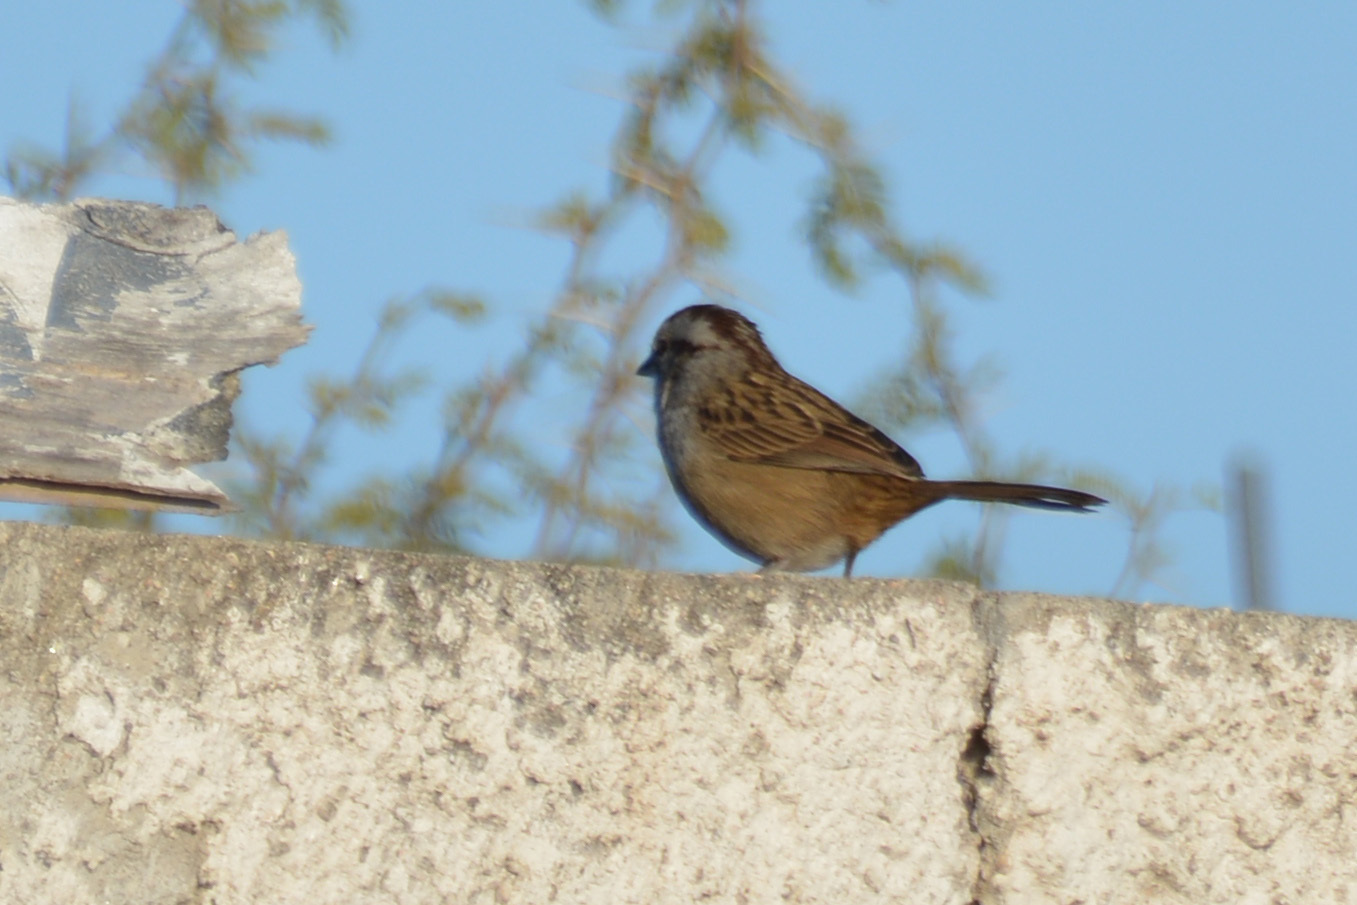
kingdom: Animalia
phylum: Chordata
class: Aves
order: Passeriformes
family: Passerellidae
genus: Rhynchospiza
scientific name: Rhynchospiza strigiceps
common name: Stripe-capped sparrow
